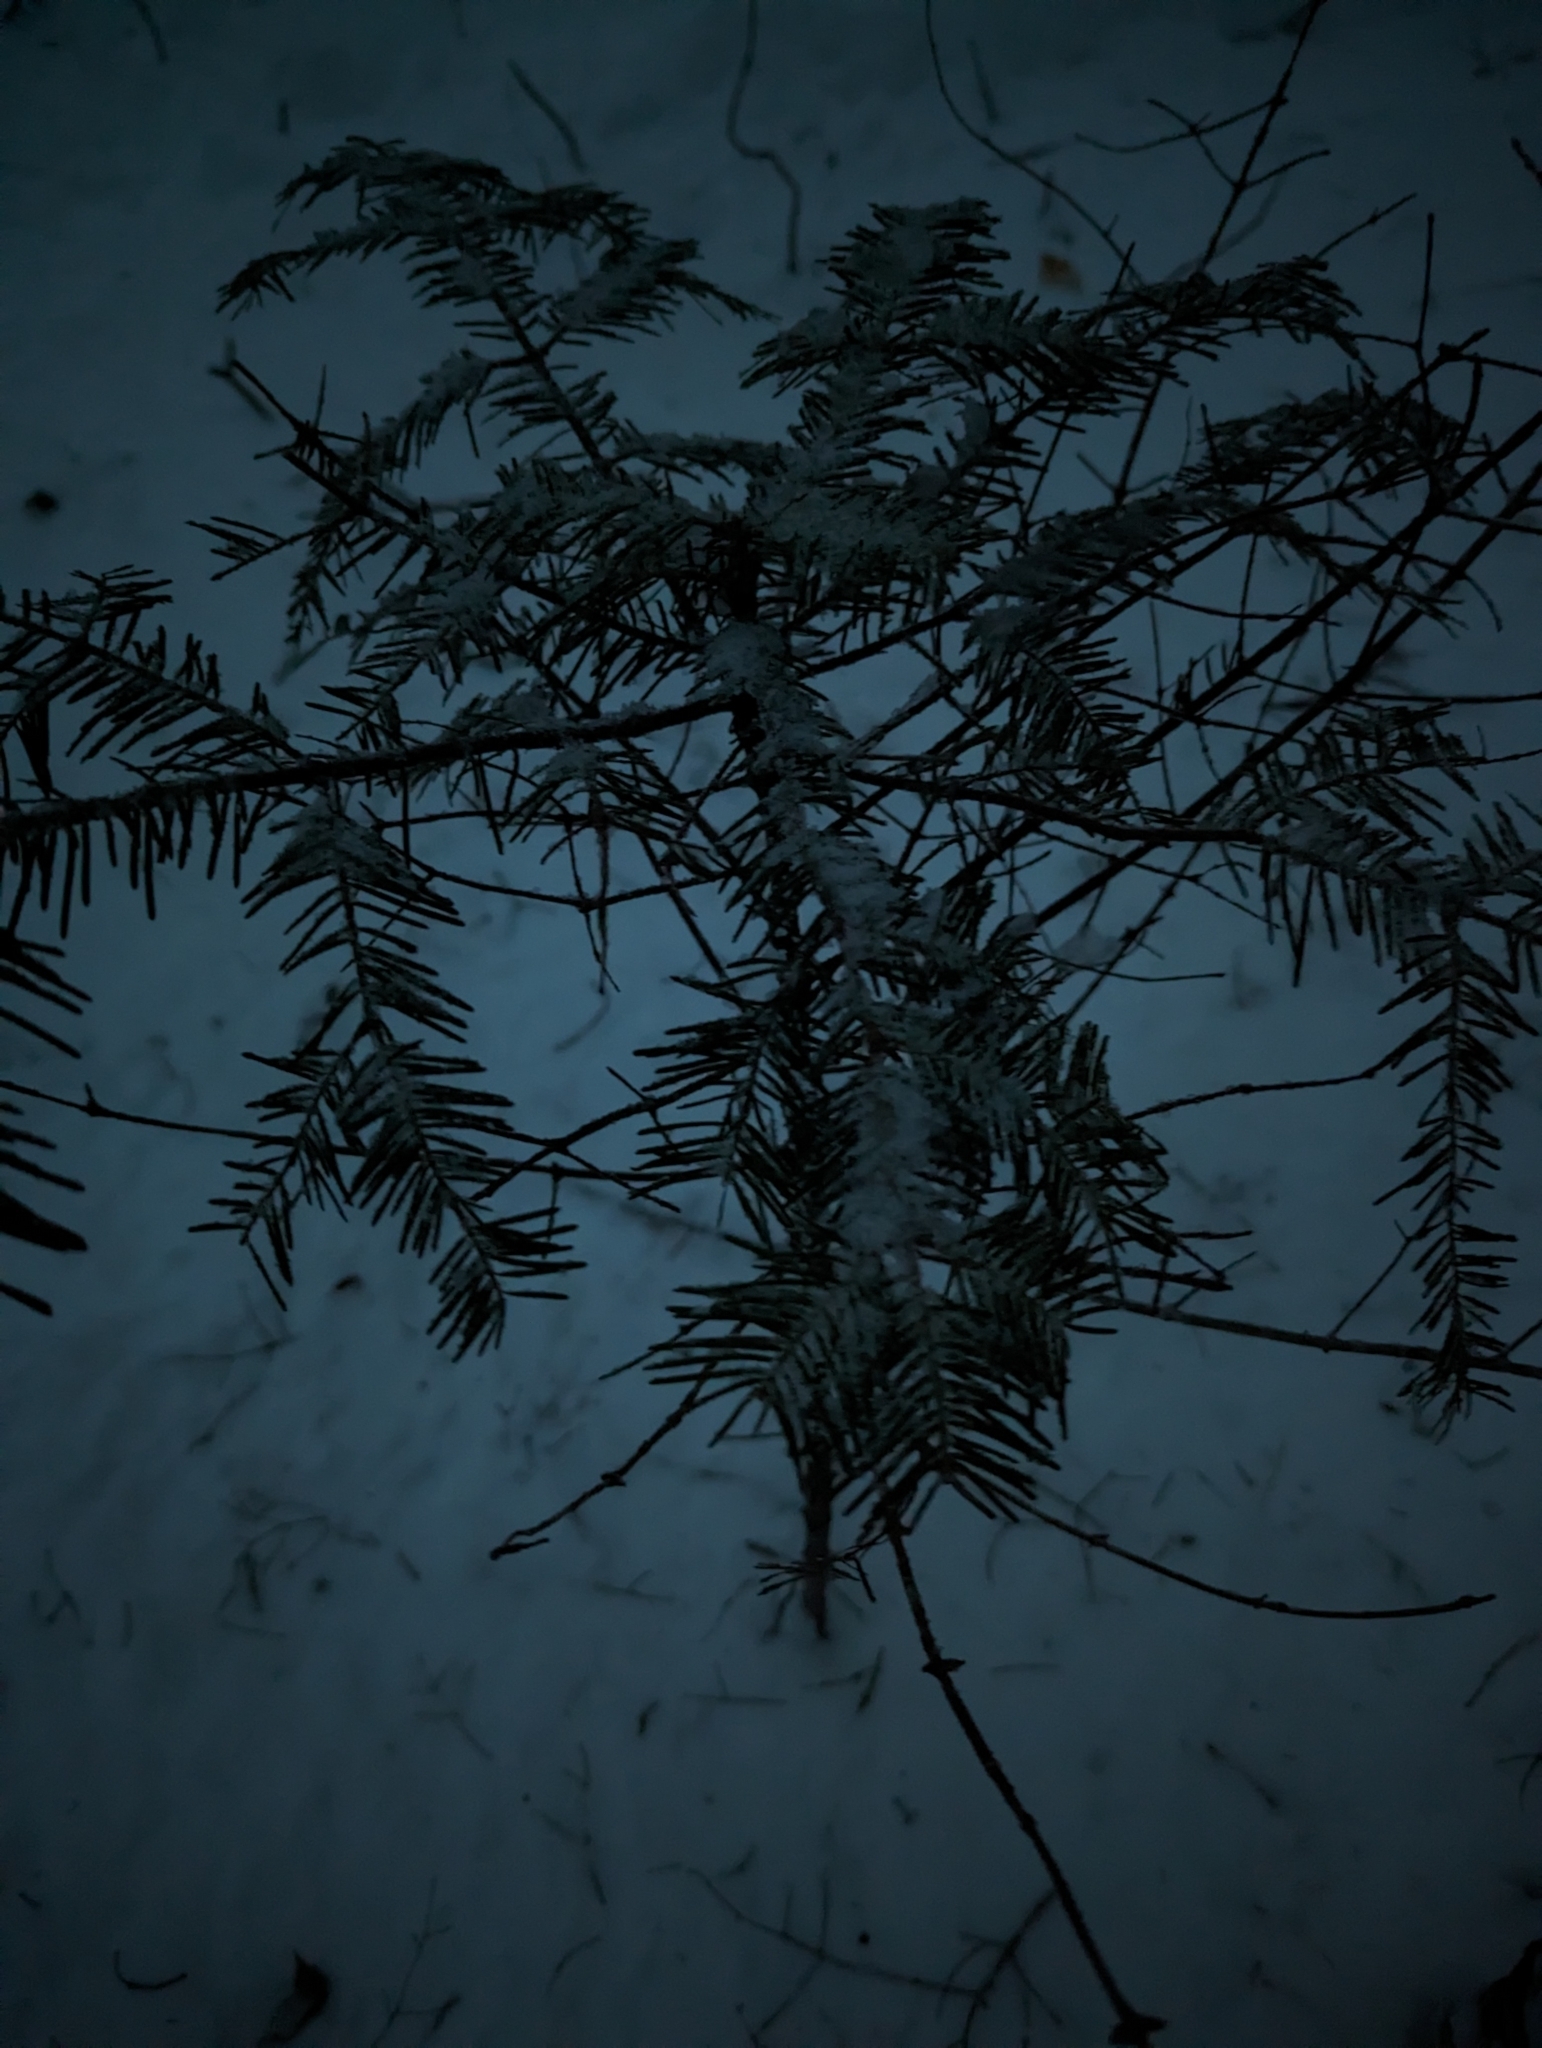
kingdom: Plantae
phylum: Tracheophyta
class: Pinopsida
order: Pinales
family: Pinaceae
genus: Abies
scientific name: Abies balsamea
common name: Balsam fir
